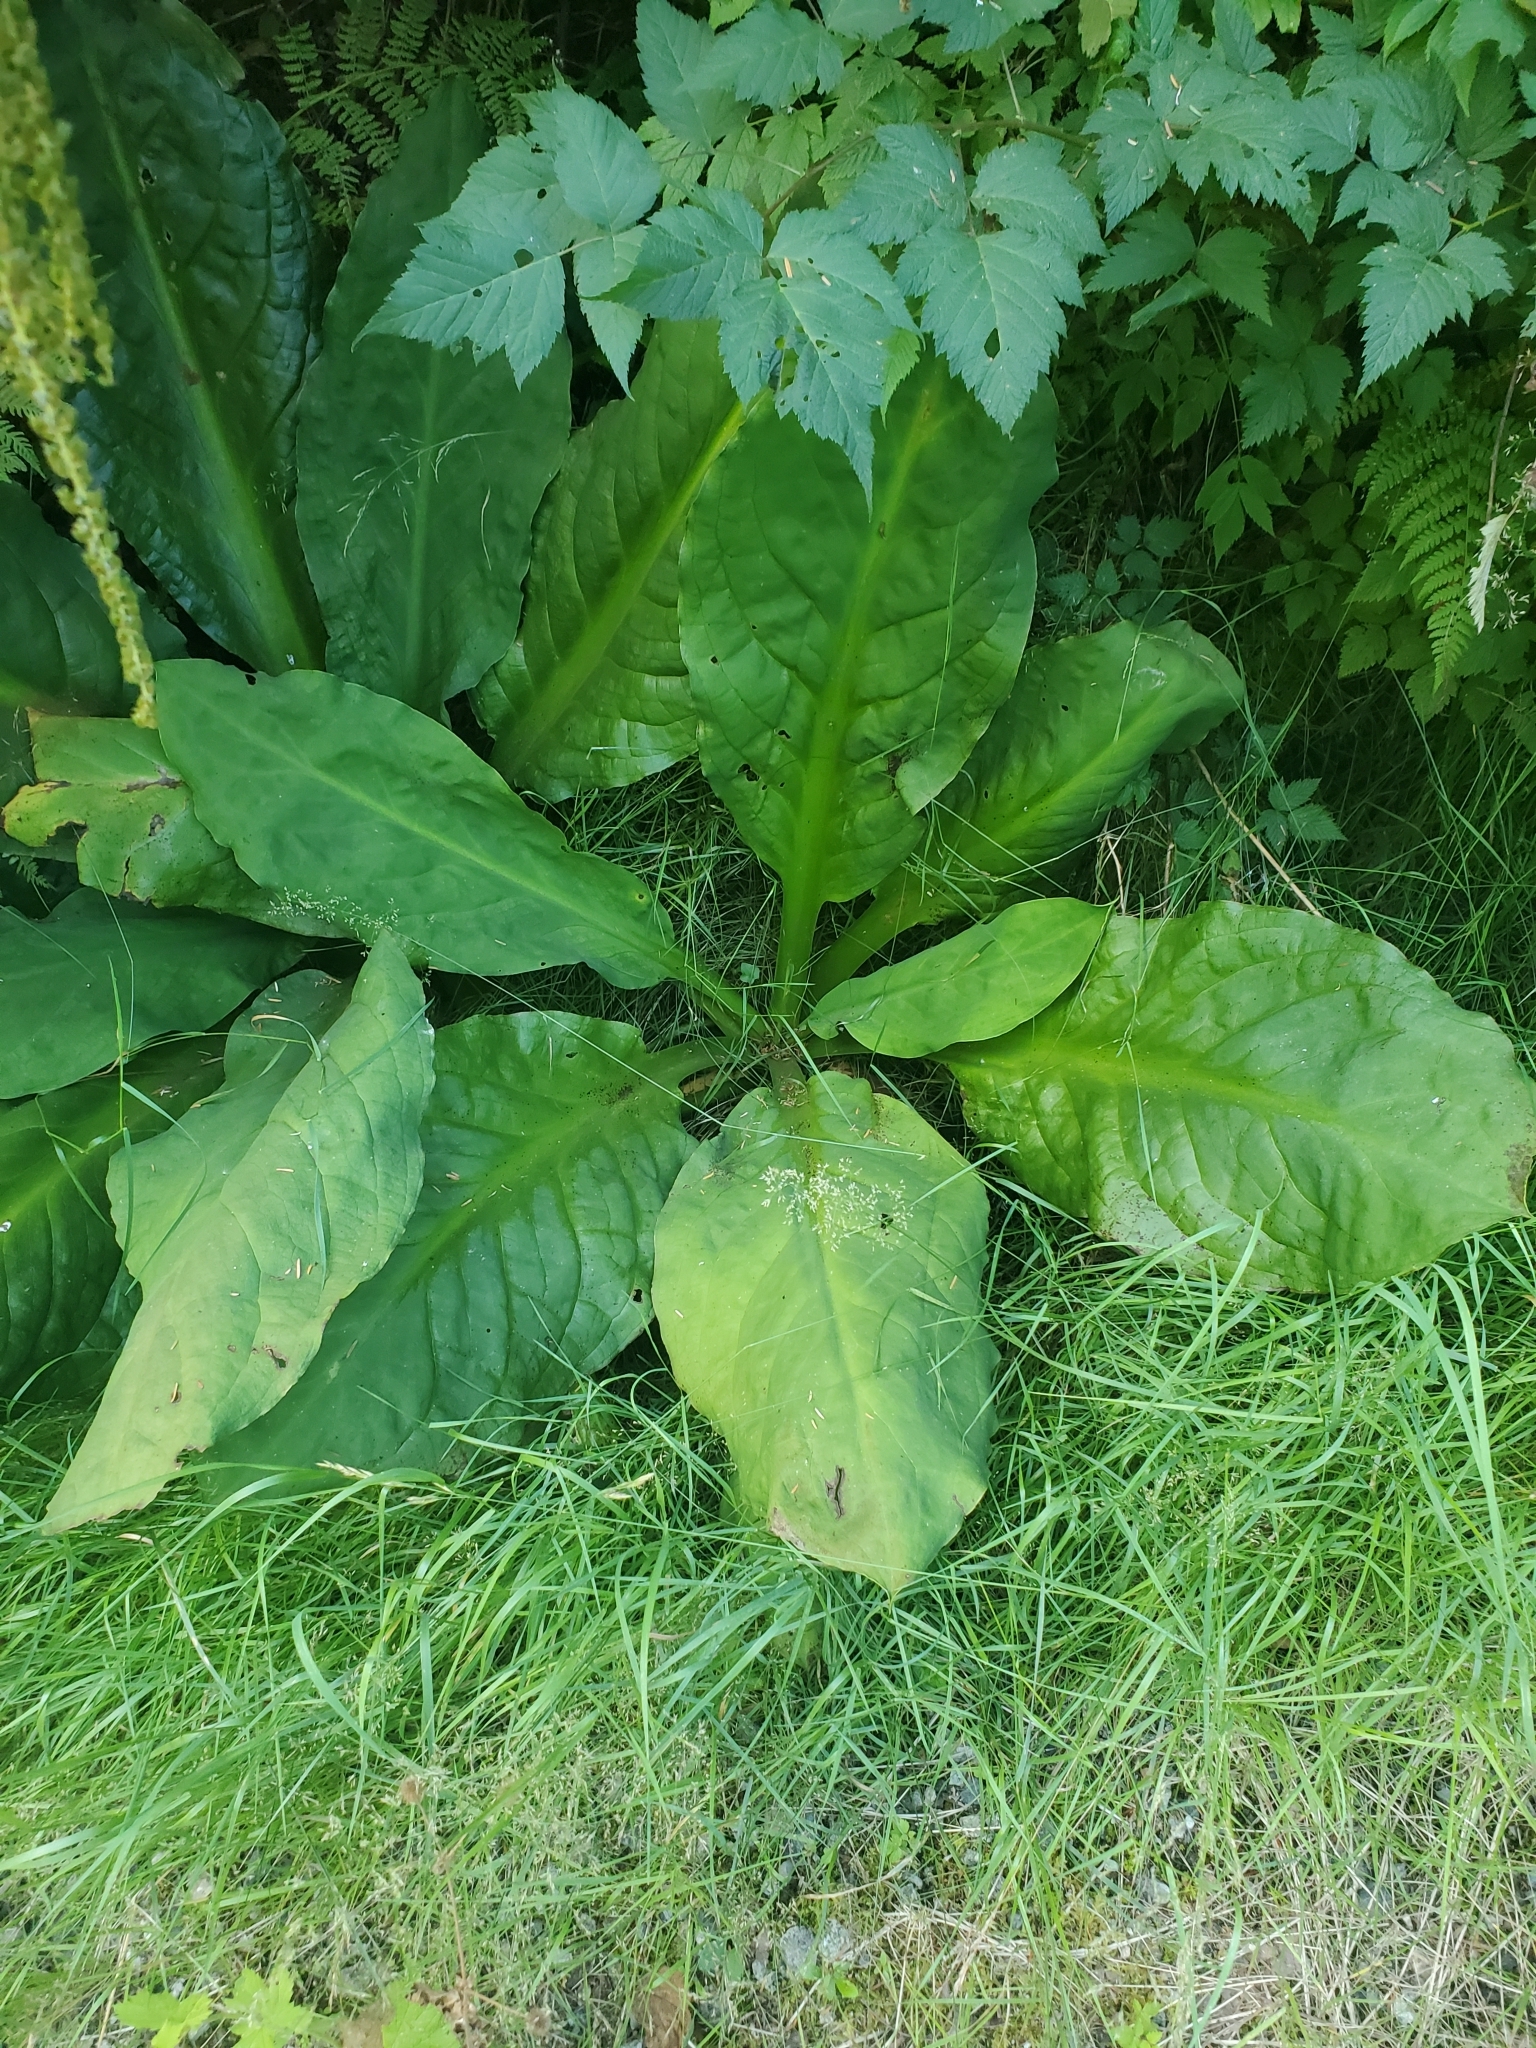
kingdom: Plantae
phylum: Tracheophyta
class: Liliopsida
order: Alismatales
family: Araceae
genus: Lysichiton
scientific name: Lysichiton americanus
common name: American skunk cabbage
